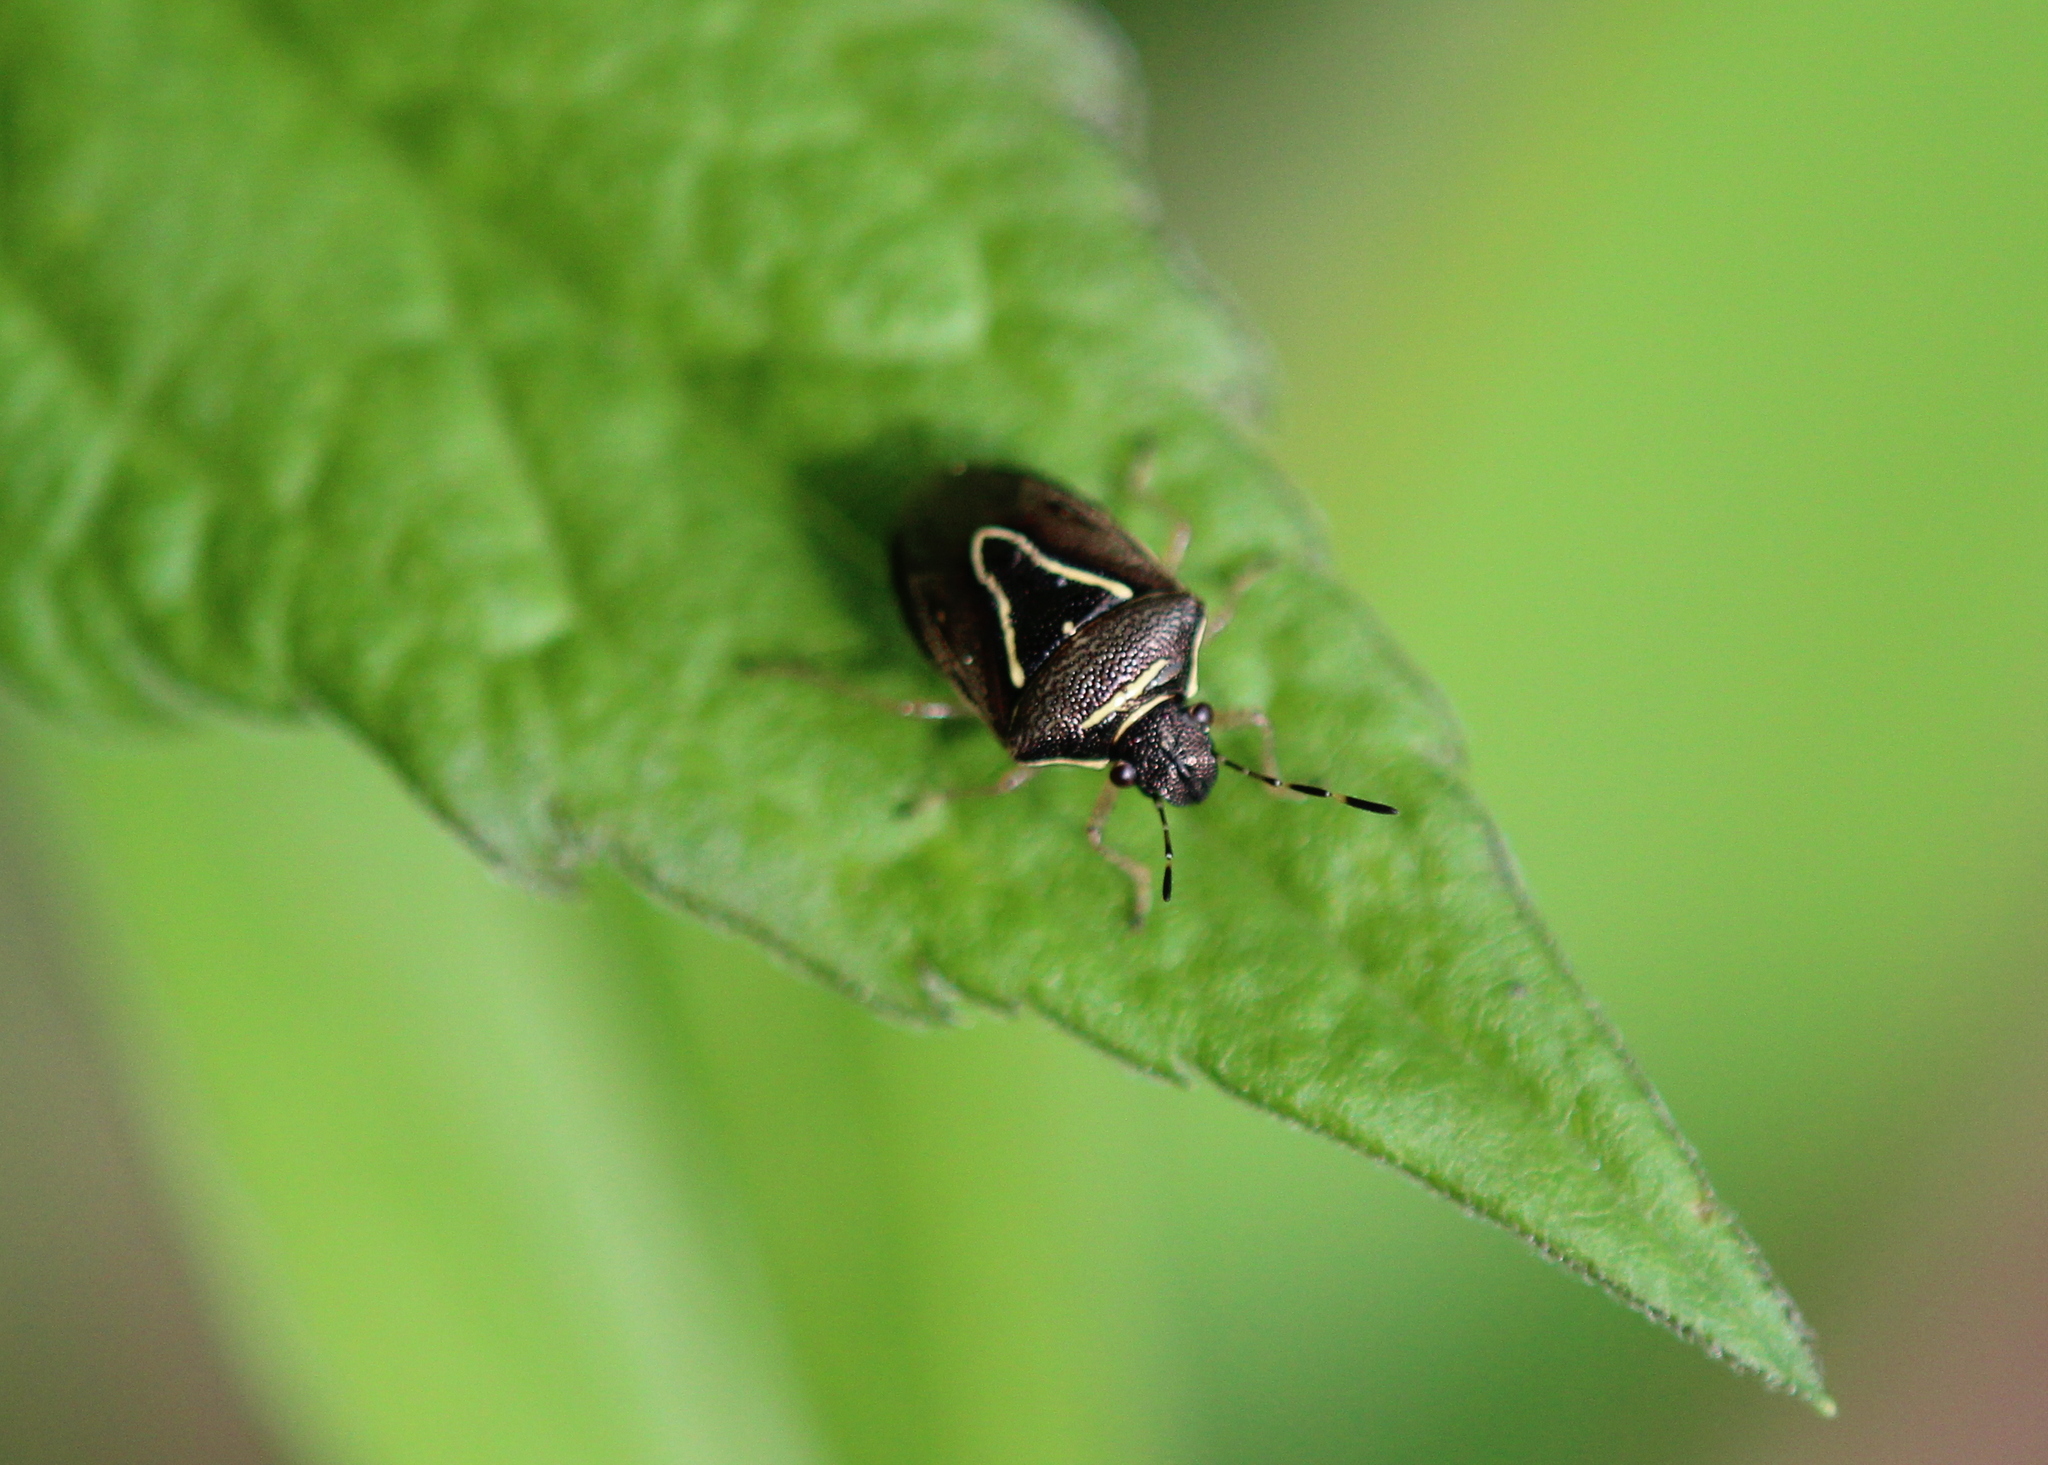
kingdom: Animalia
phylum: Arthropoda
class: Insecta
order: Hemiptera
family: Pentatomidae
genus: Mormidea
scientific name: Mormidea lugens
